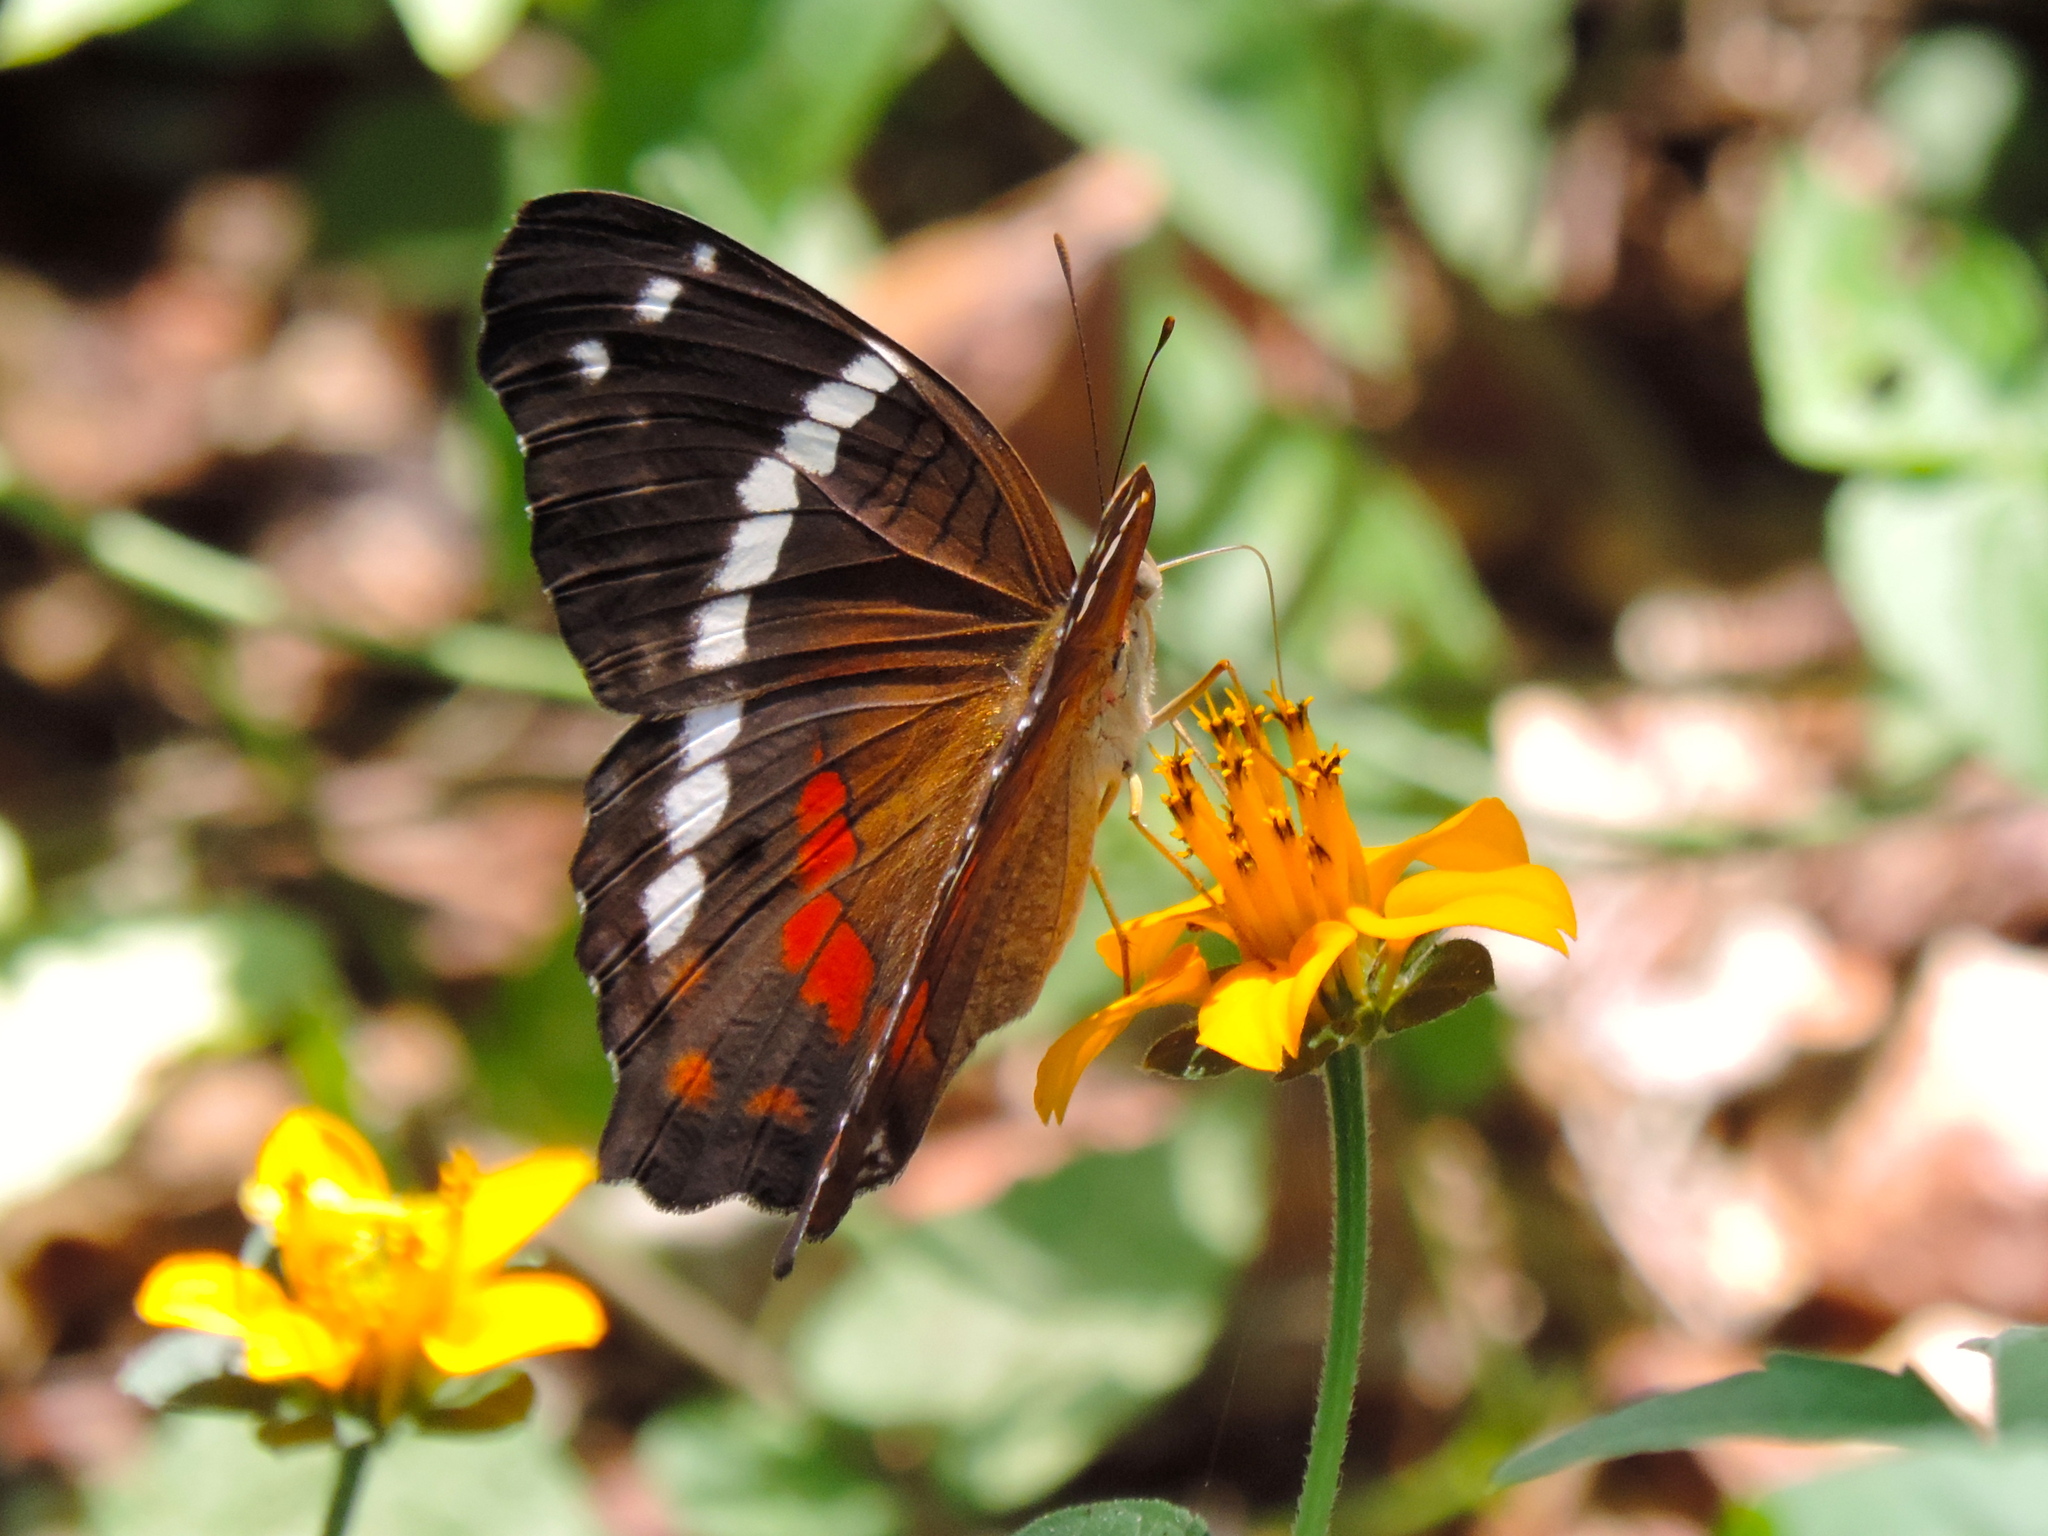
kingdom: Animalia
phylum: Arthropoda
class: Insecta
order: Lepidoptera
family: Nymphalidae
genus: Anartia
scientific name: Anartia fatima
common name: Banded peacock
